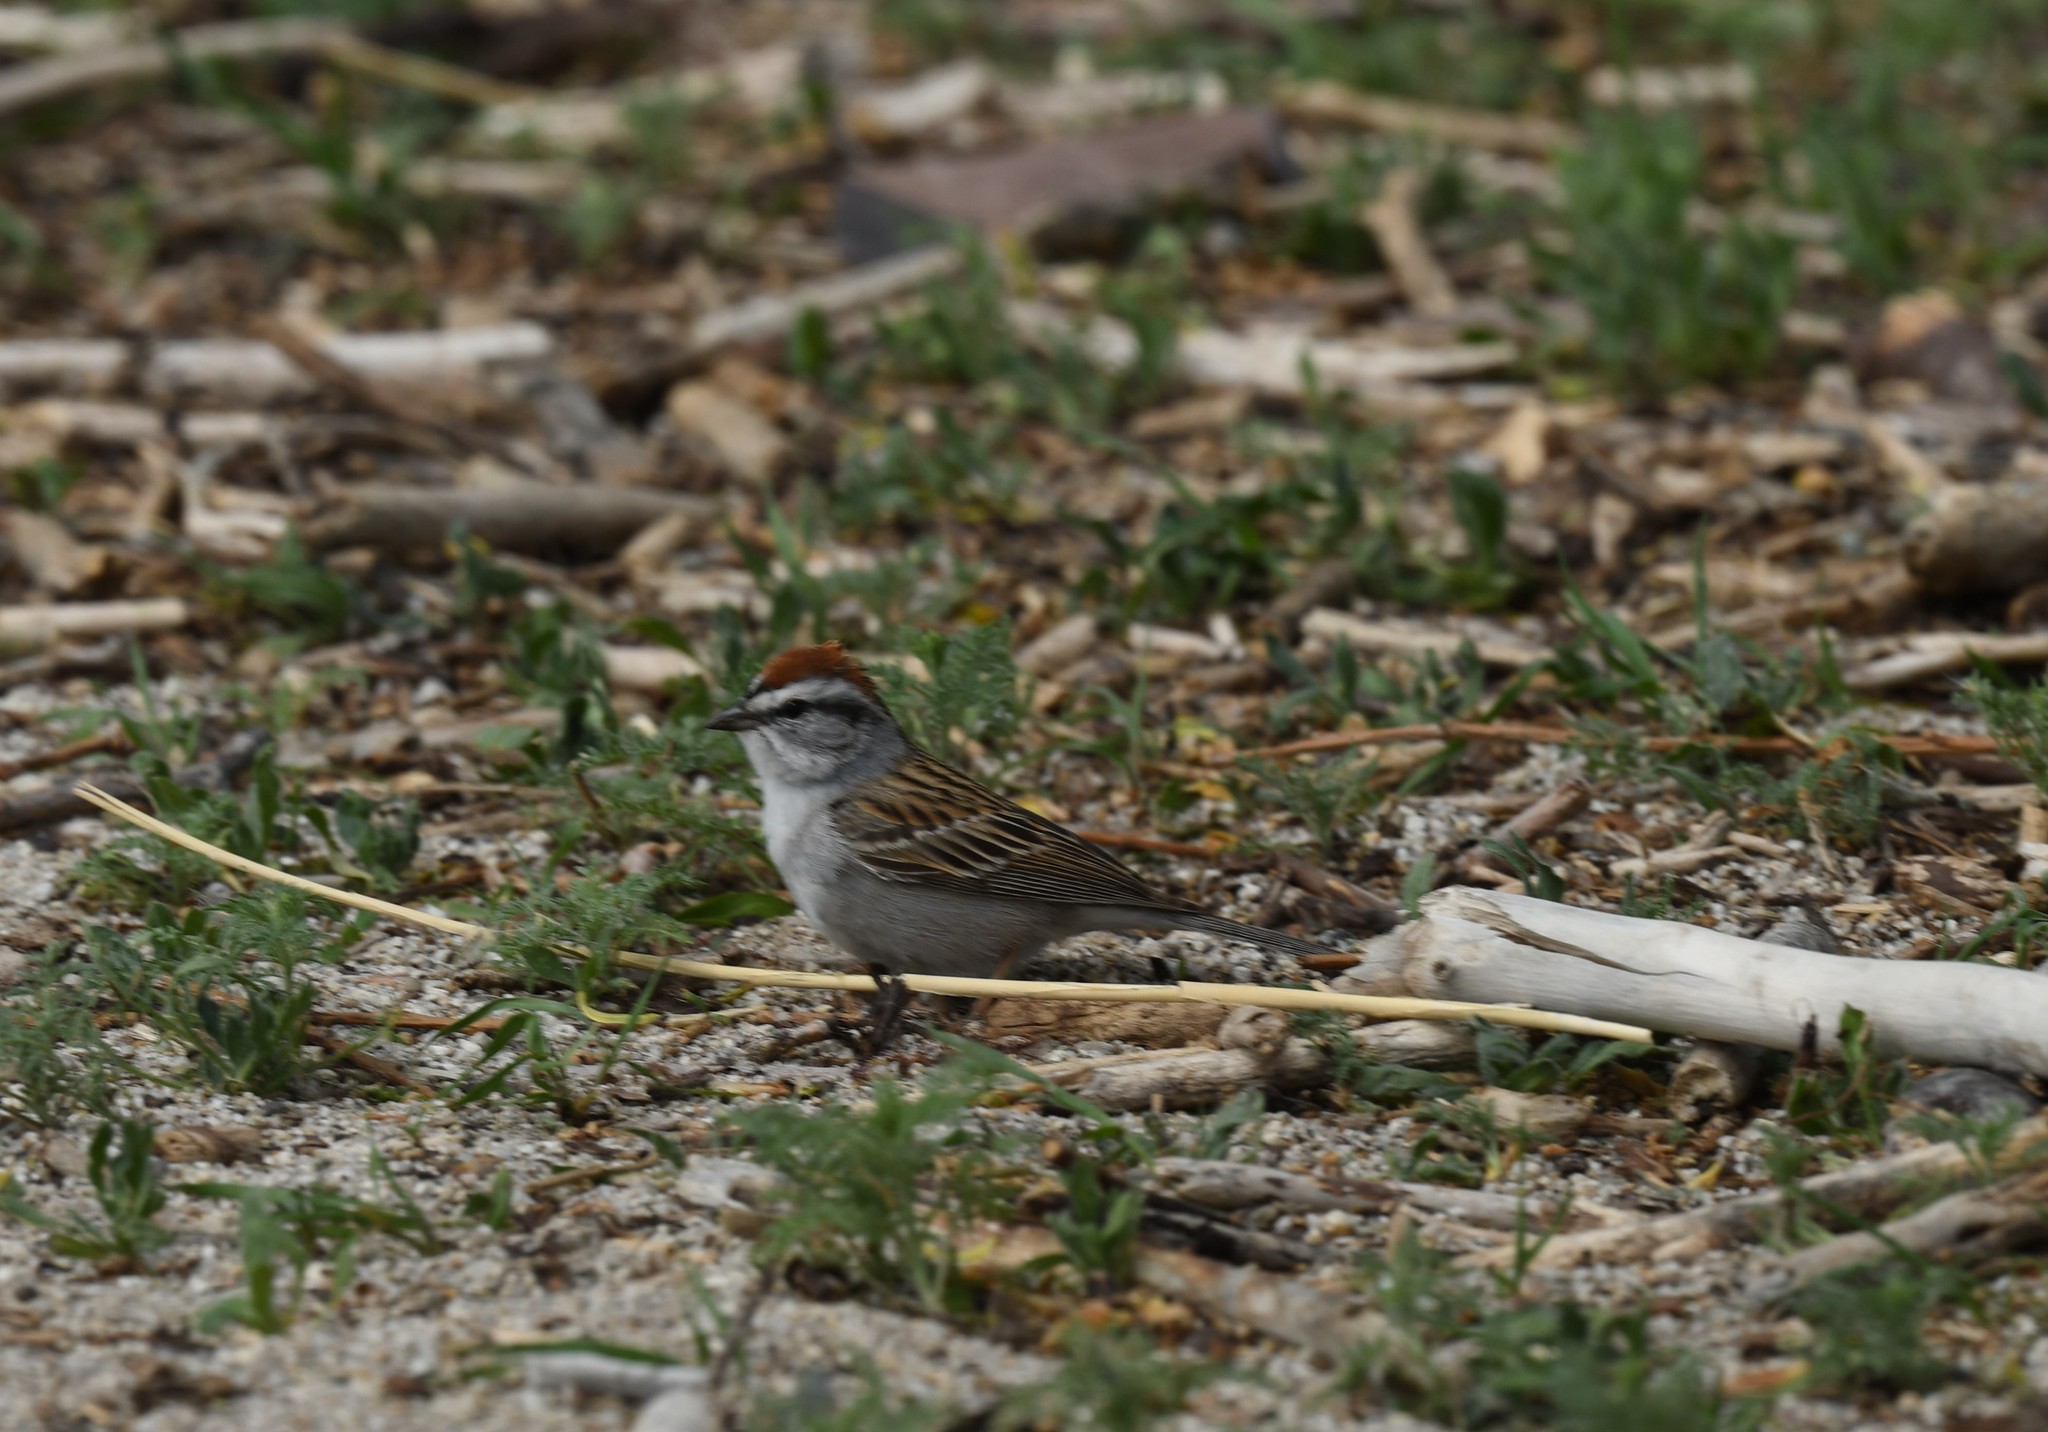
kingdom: Animalia
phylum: Chordata
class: Aves
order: Passeriformes
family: Passerellidae
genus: Spizella
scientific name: Spizella passerina
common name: Chipping sparrow
